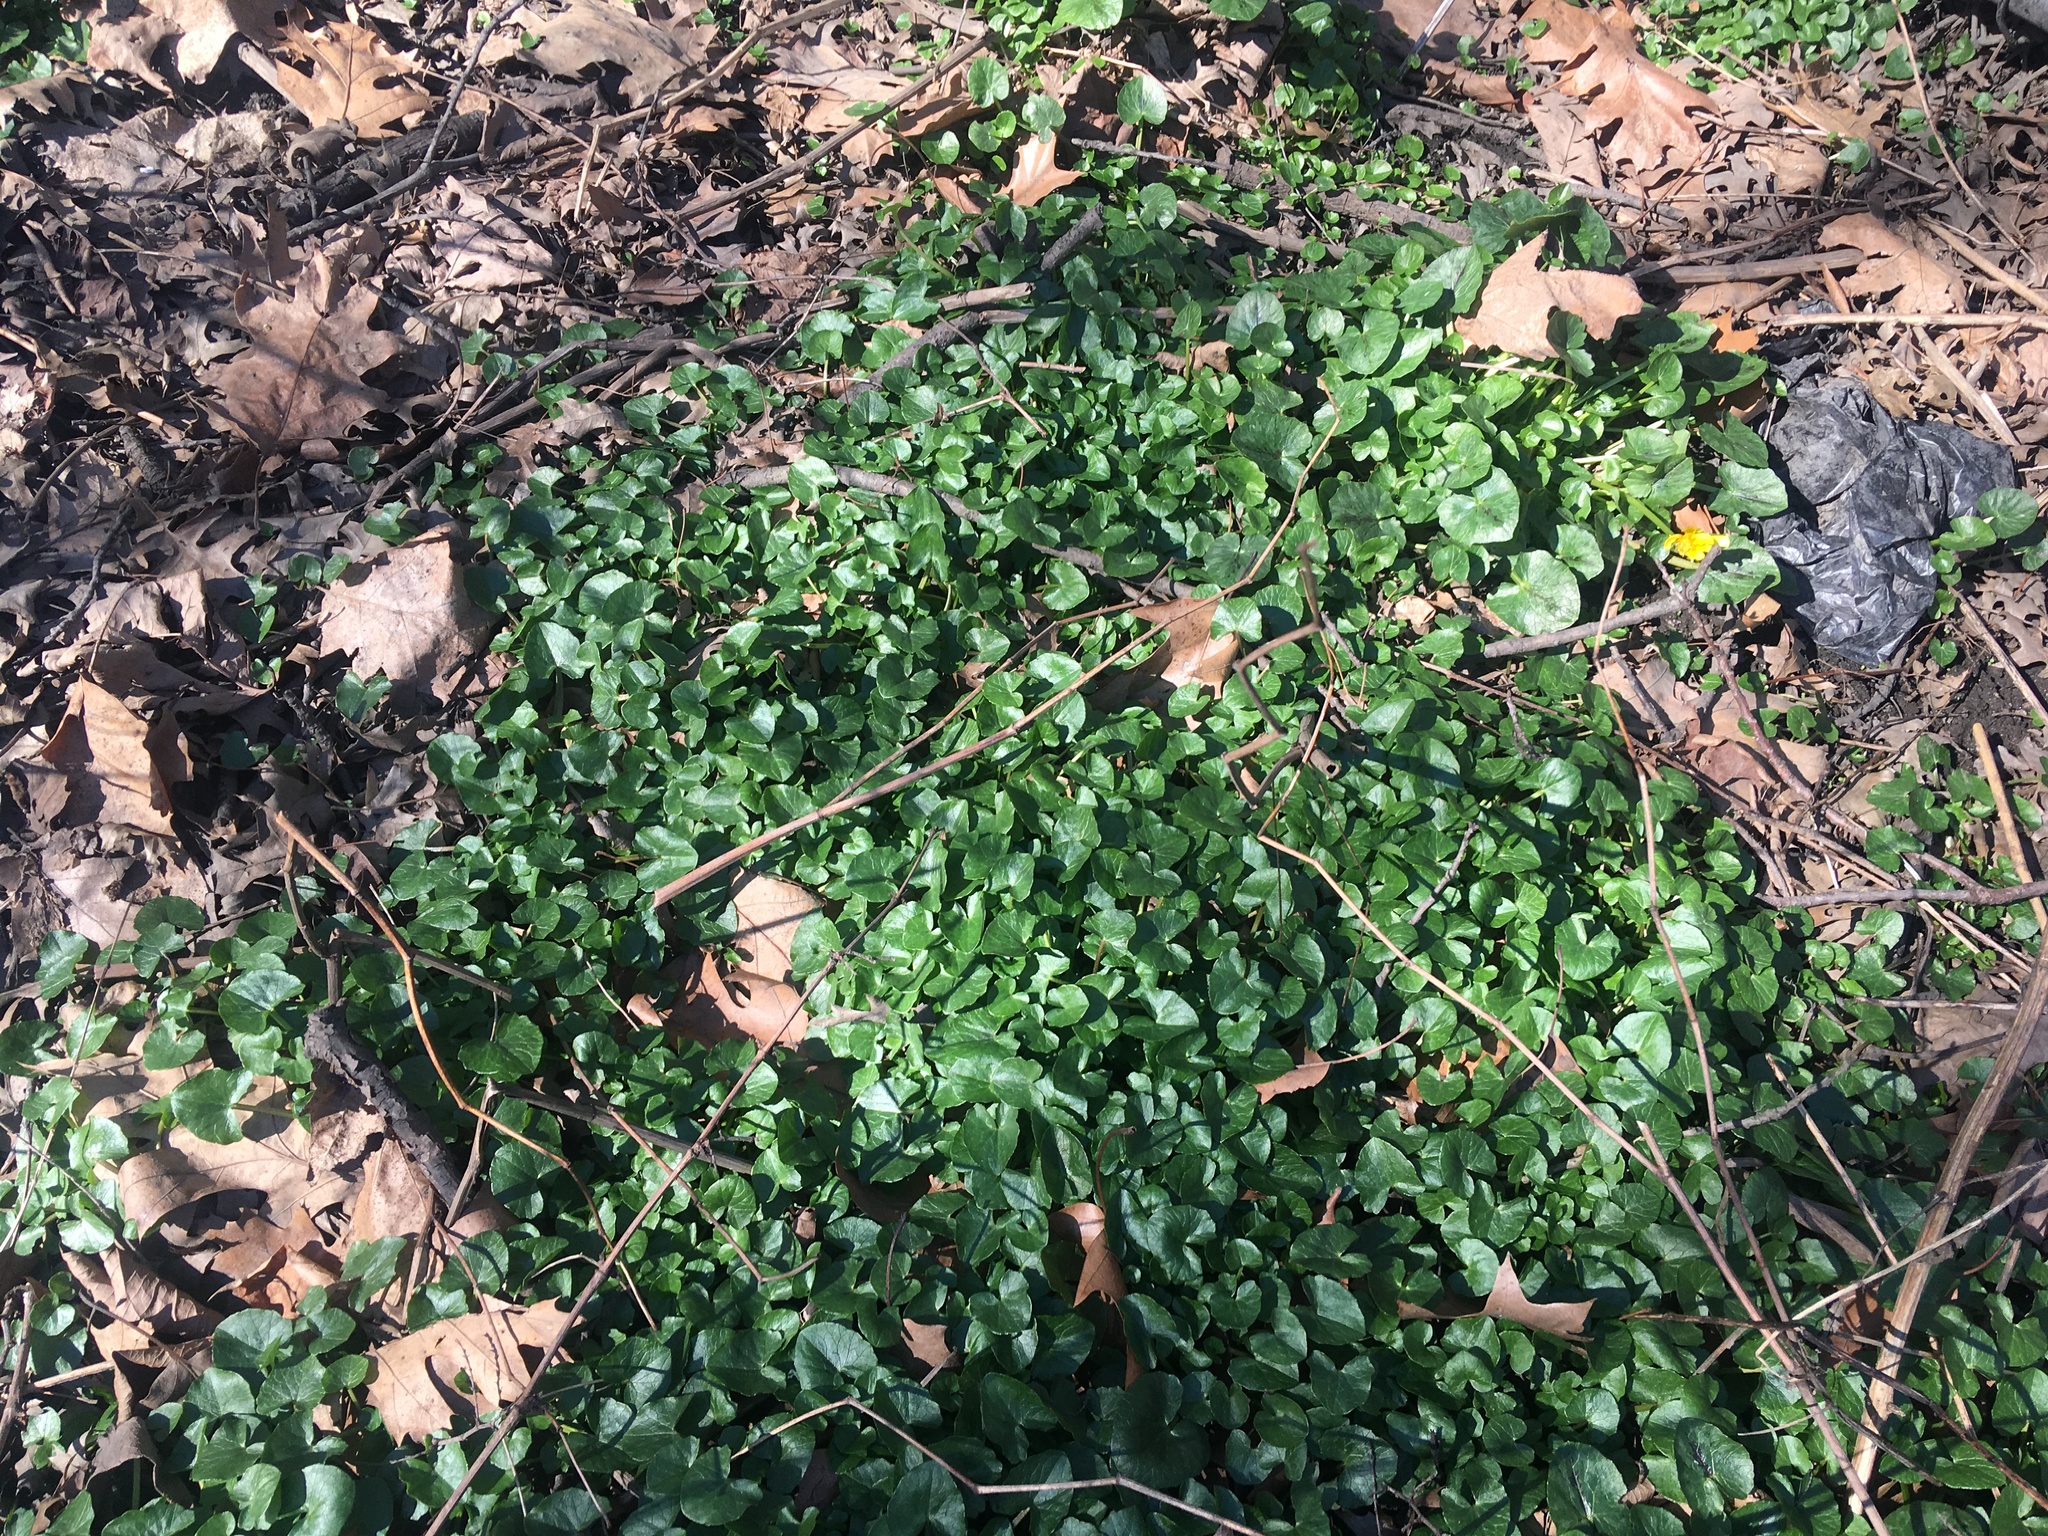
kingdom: Plantae
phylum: Tracheophyta
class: Magnoliopsida
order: Ranunculales
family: Ranunculaceae
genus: Ficaria
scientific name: Ficaria verna
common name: Lesser celandine
